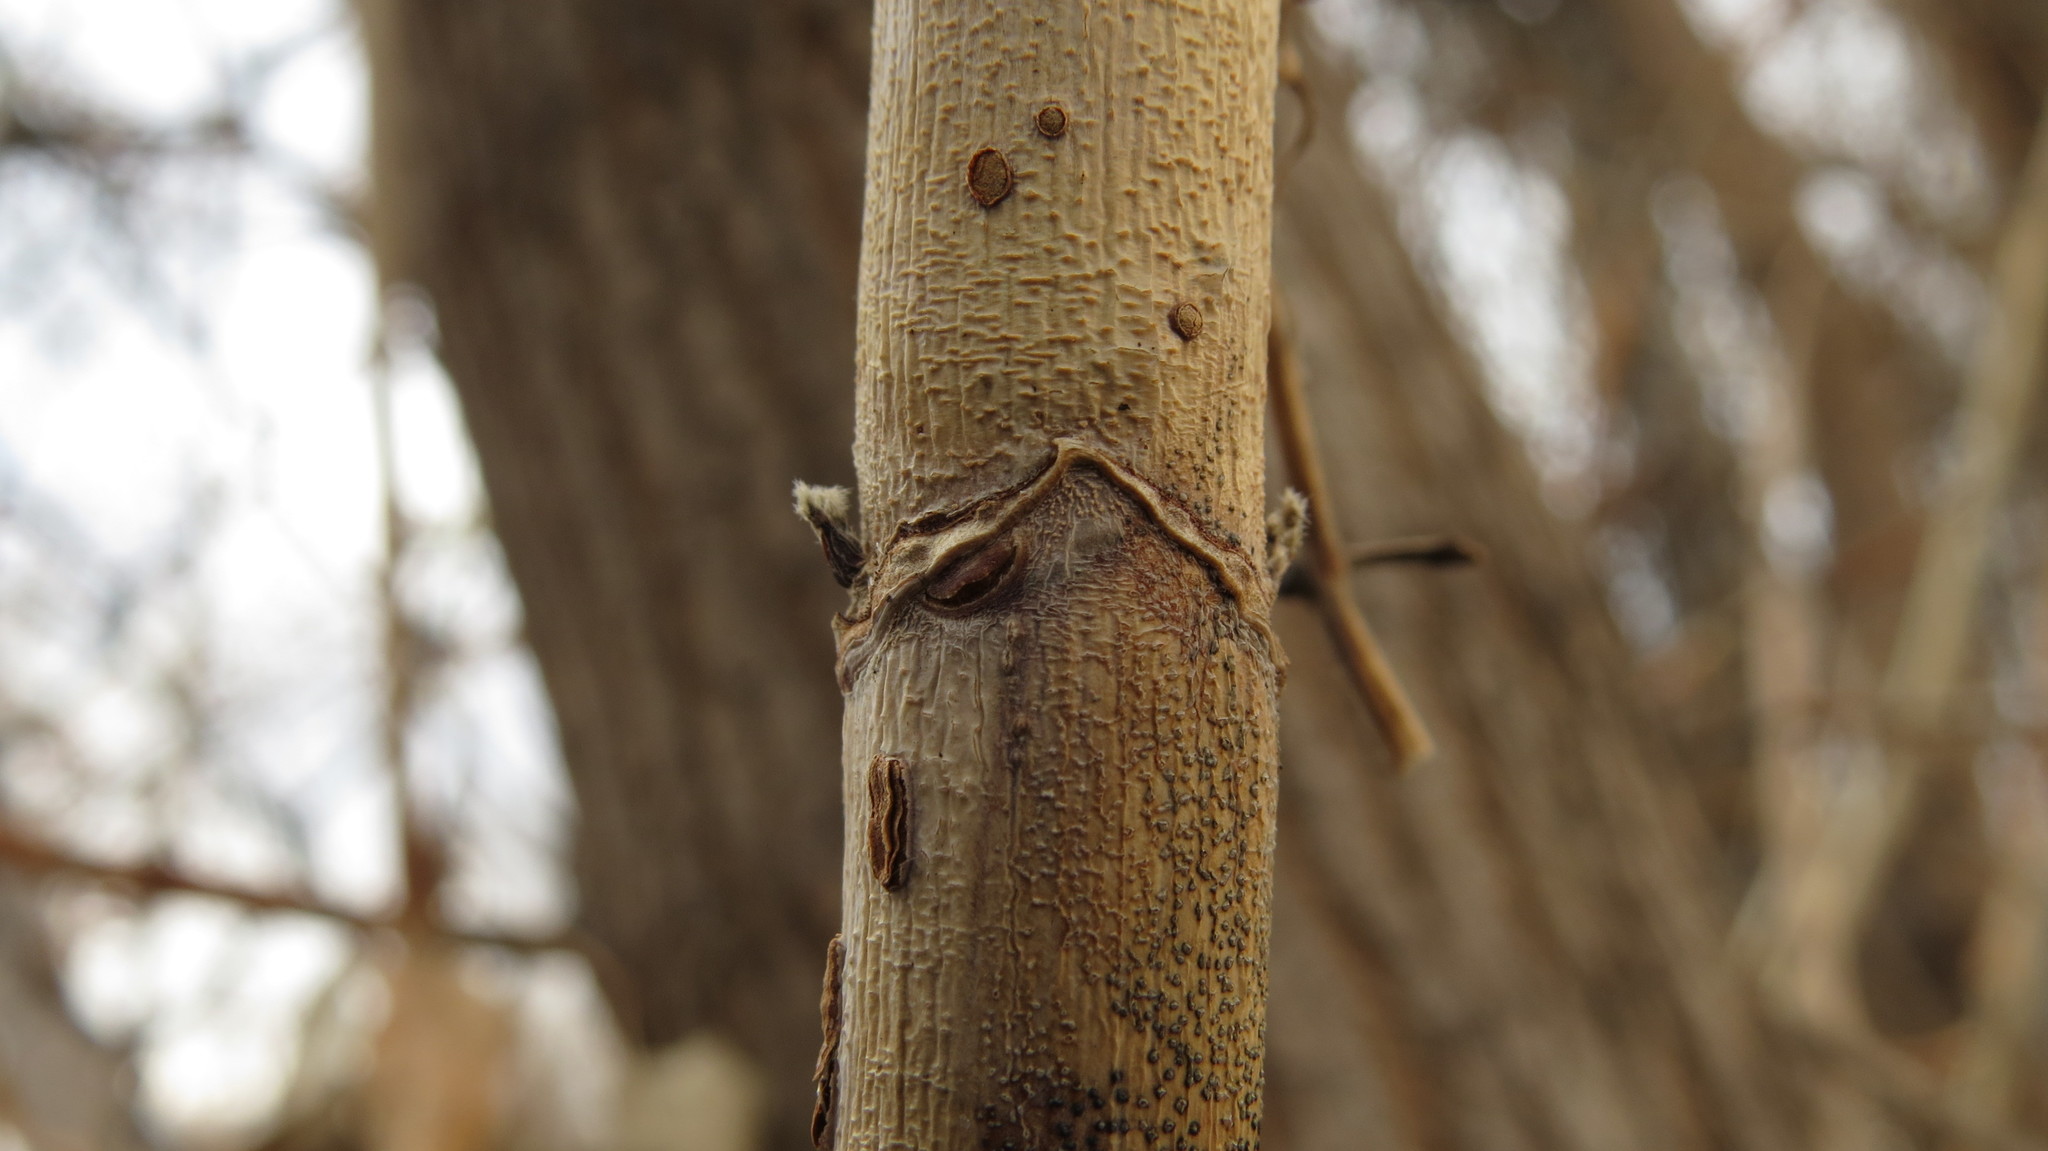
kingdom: Plantae
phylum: Tracheophyta
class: Magnoliopsida
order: Sapindales
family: Sapindaceae
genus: Acer
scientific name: Acer negundo
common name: Ashleaf maple
